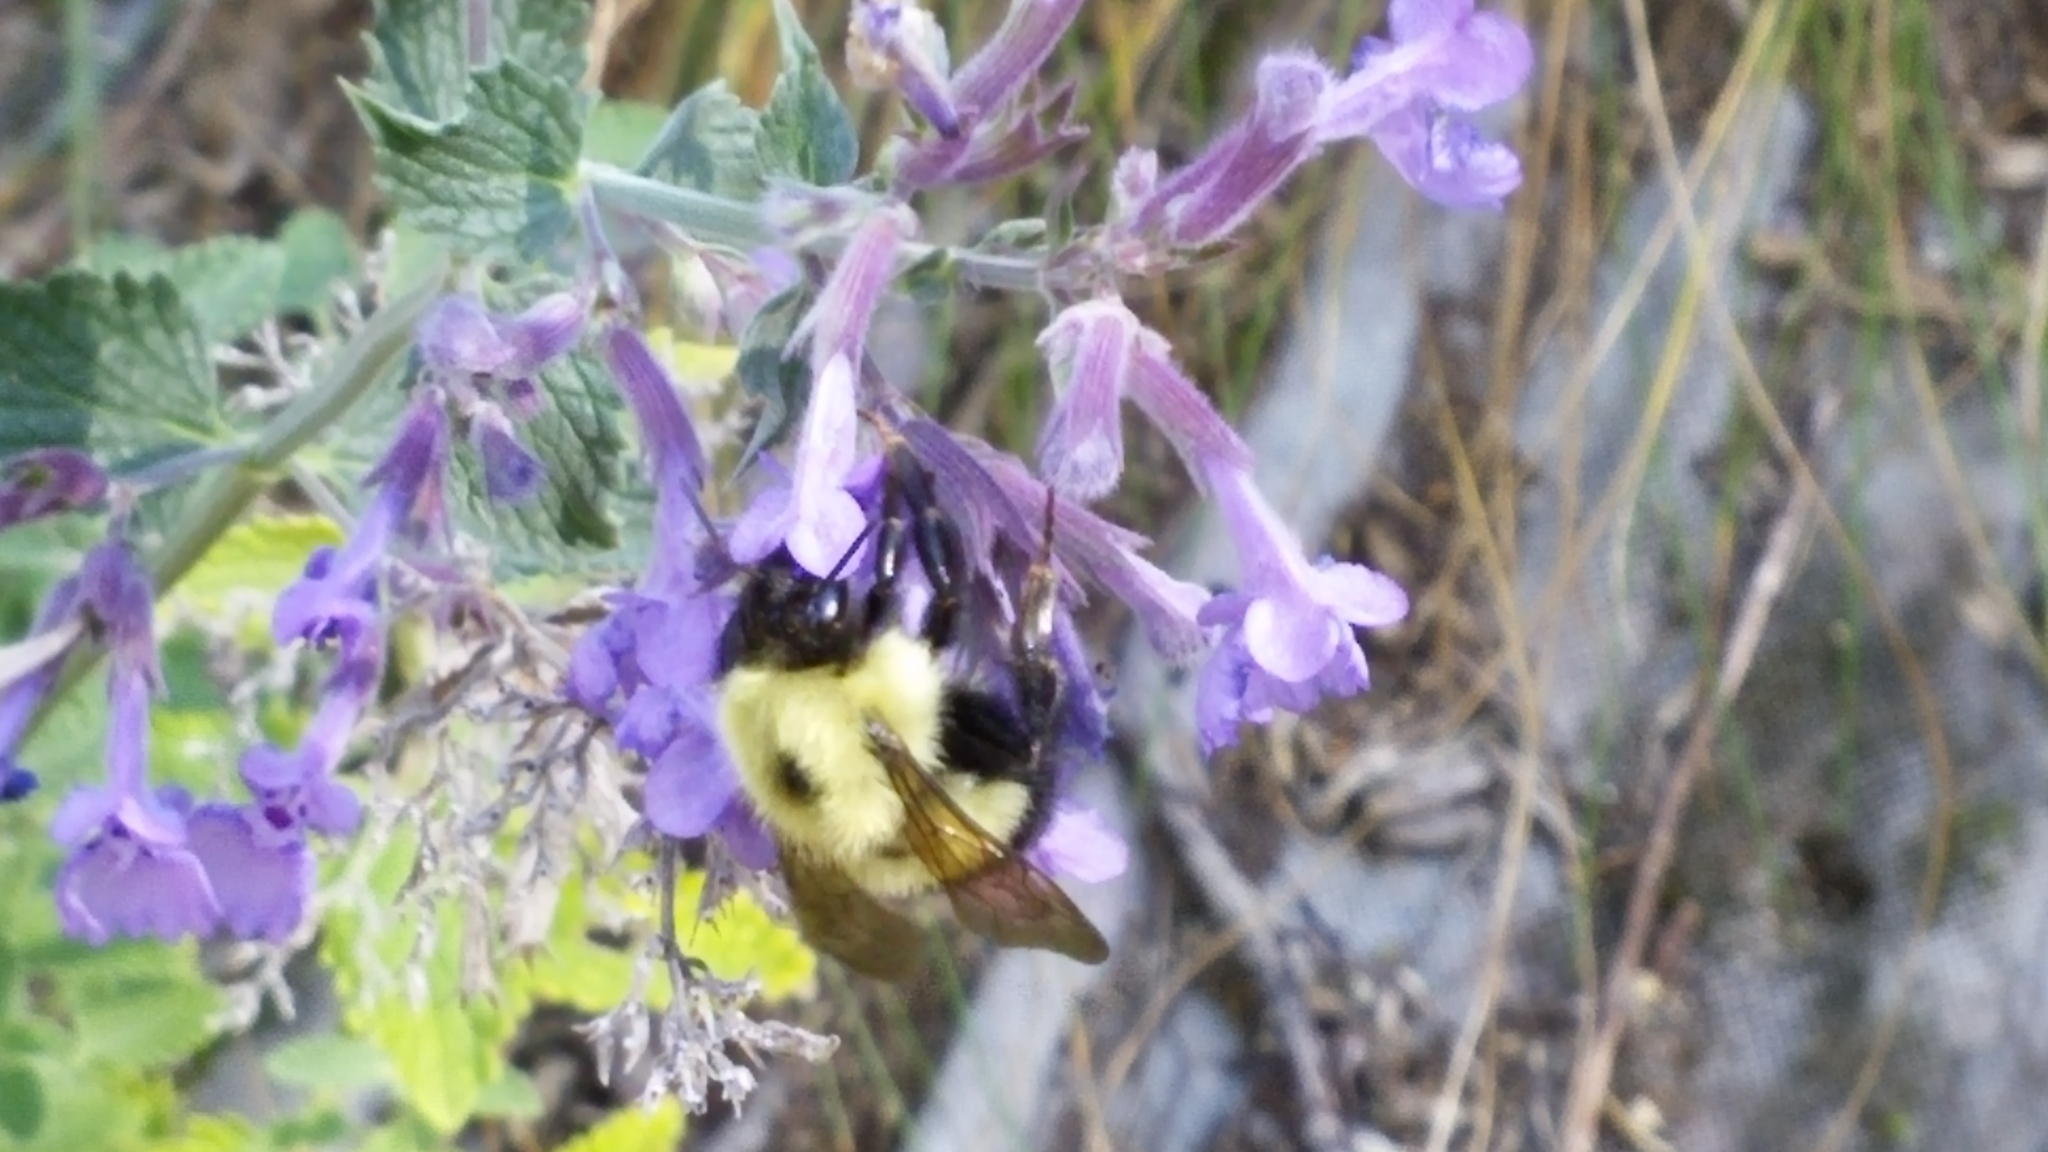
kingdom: Animalia
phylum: Arthropoda
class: Insecta
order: Hymenoptera
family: Apidae
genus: Pyrobombus
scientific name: Pyrobombus
